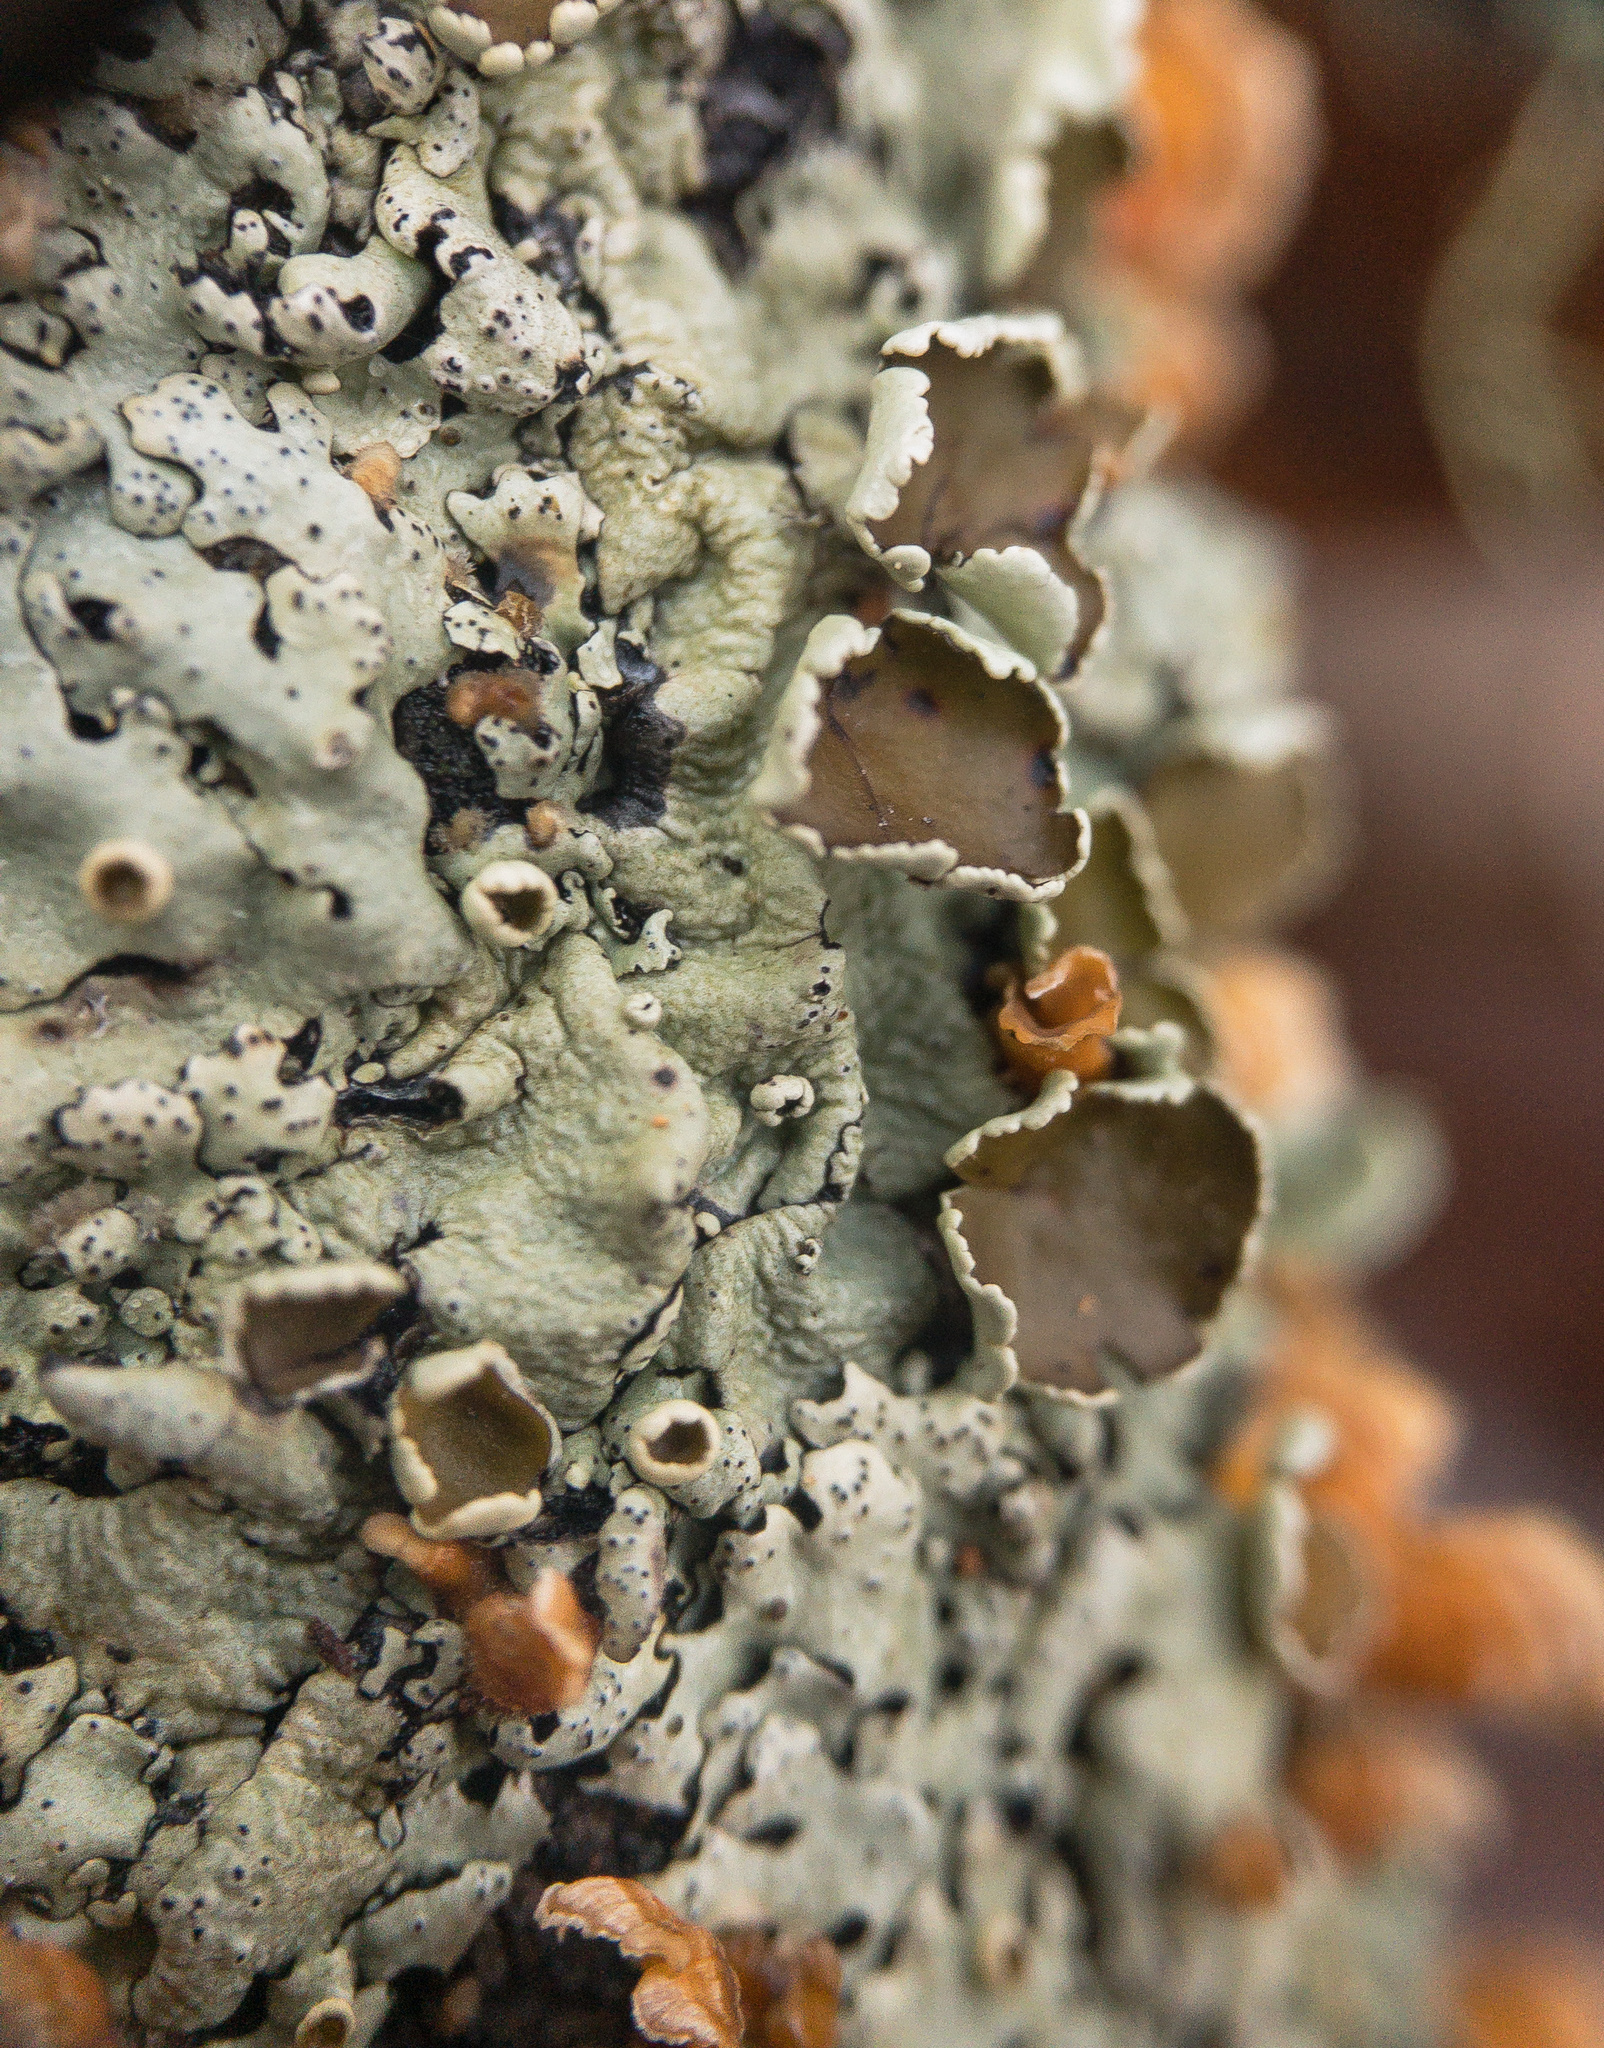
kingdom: Fungi
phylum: Ascomycota
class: Lecanoromycetes
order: Lecanorales
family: Parmeliaceae
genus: Hypotrachyna
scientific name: Hypotrachyna livida
